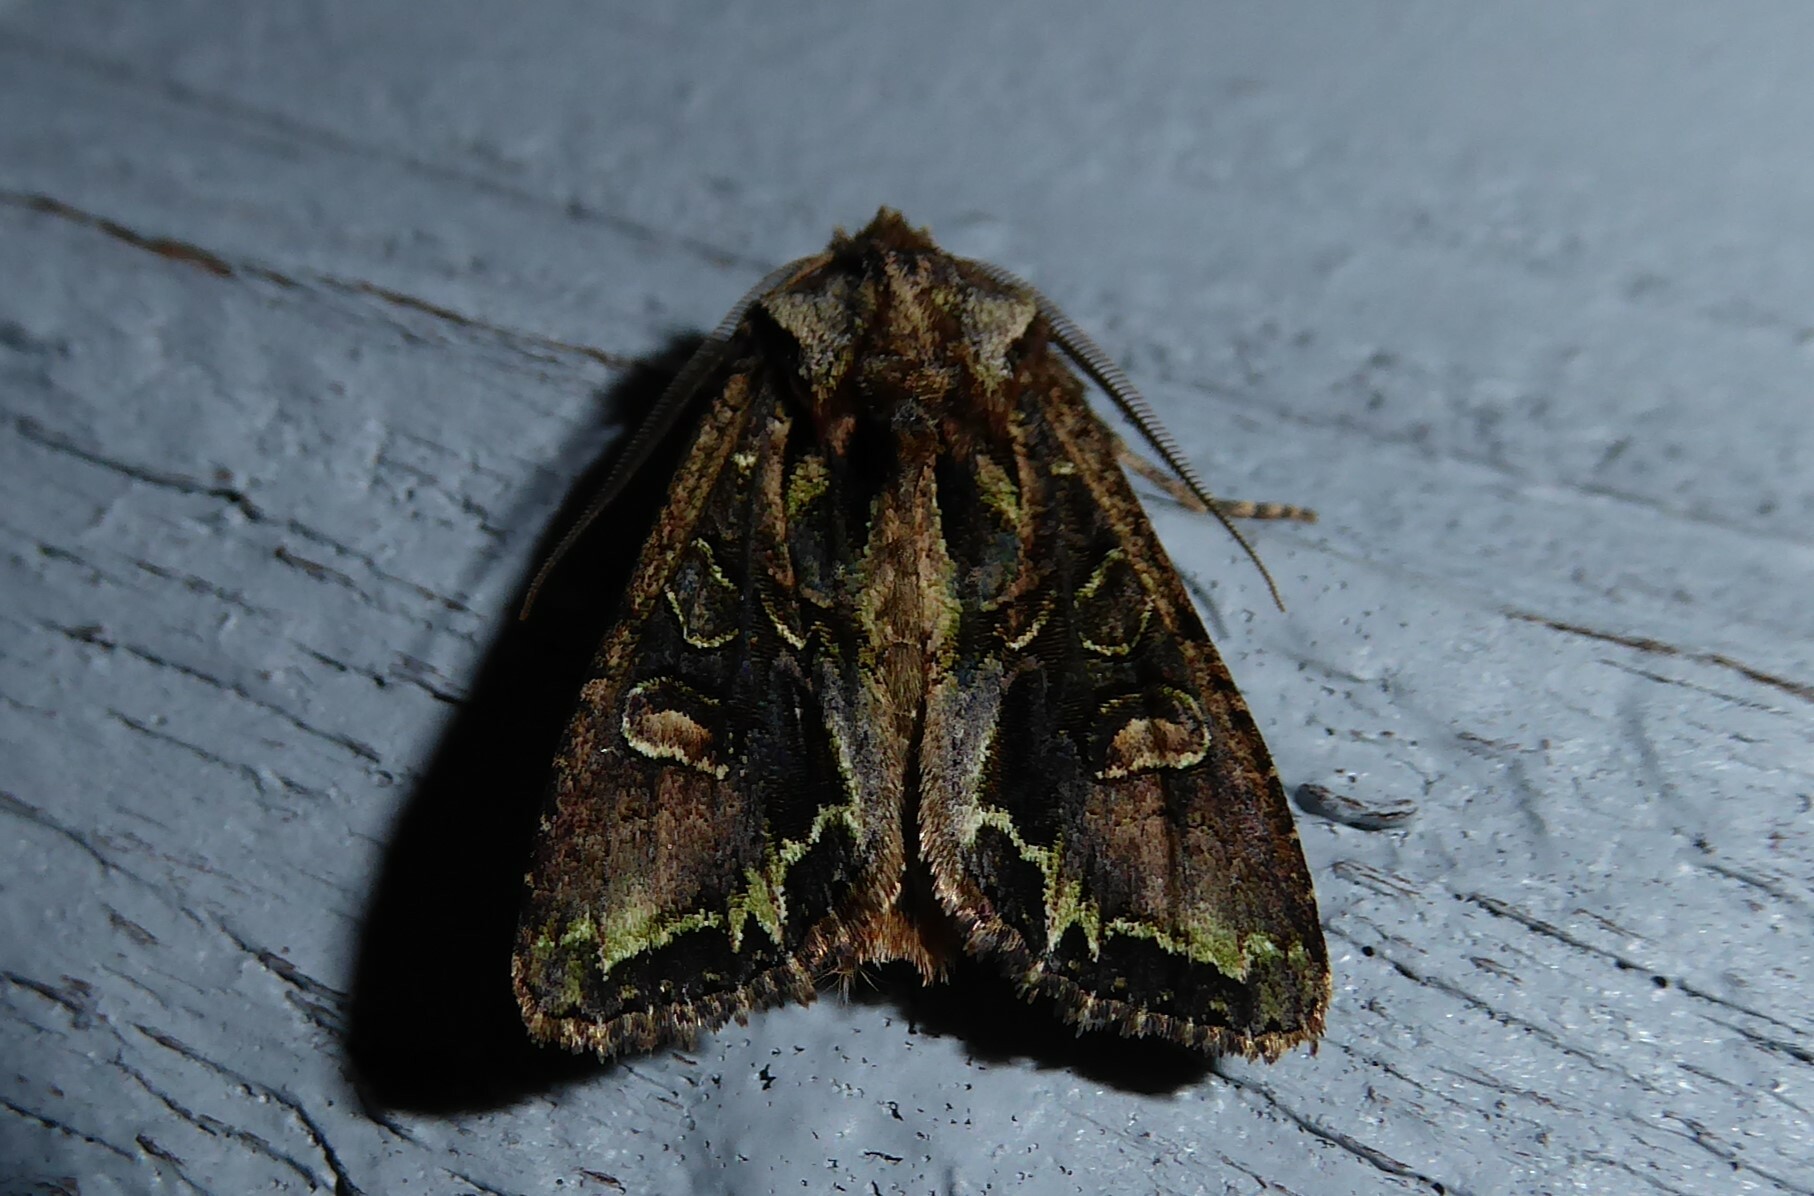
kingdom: Animalia
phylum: Arthropoda
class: Insecta
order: Lepidoptera
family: Noctuidae
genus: Ichneutica
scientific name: Ichneutica insignis
